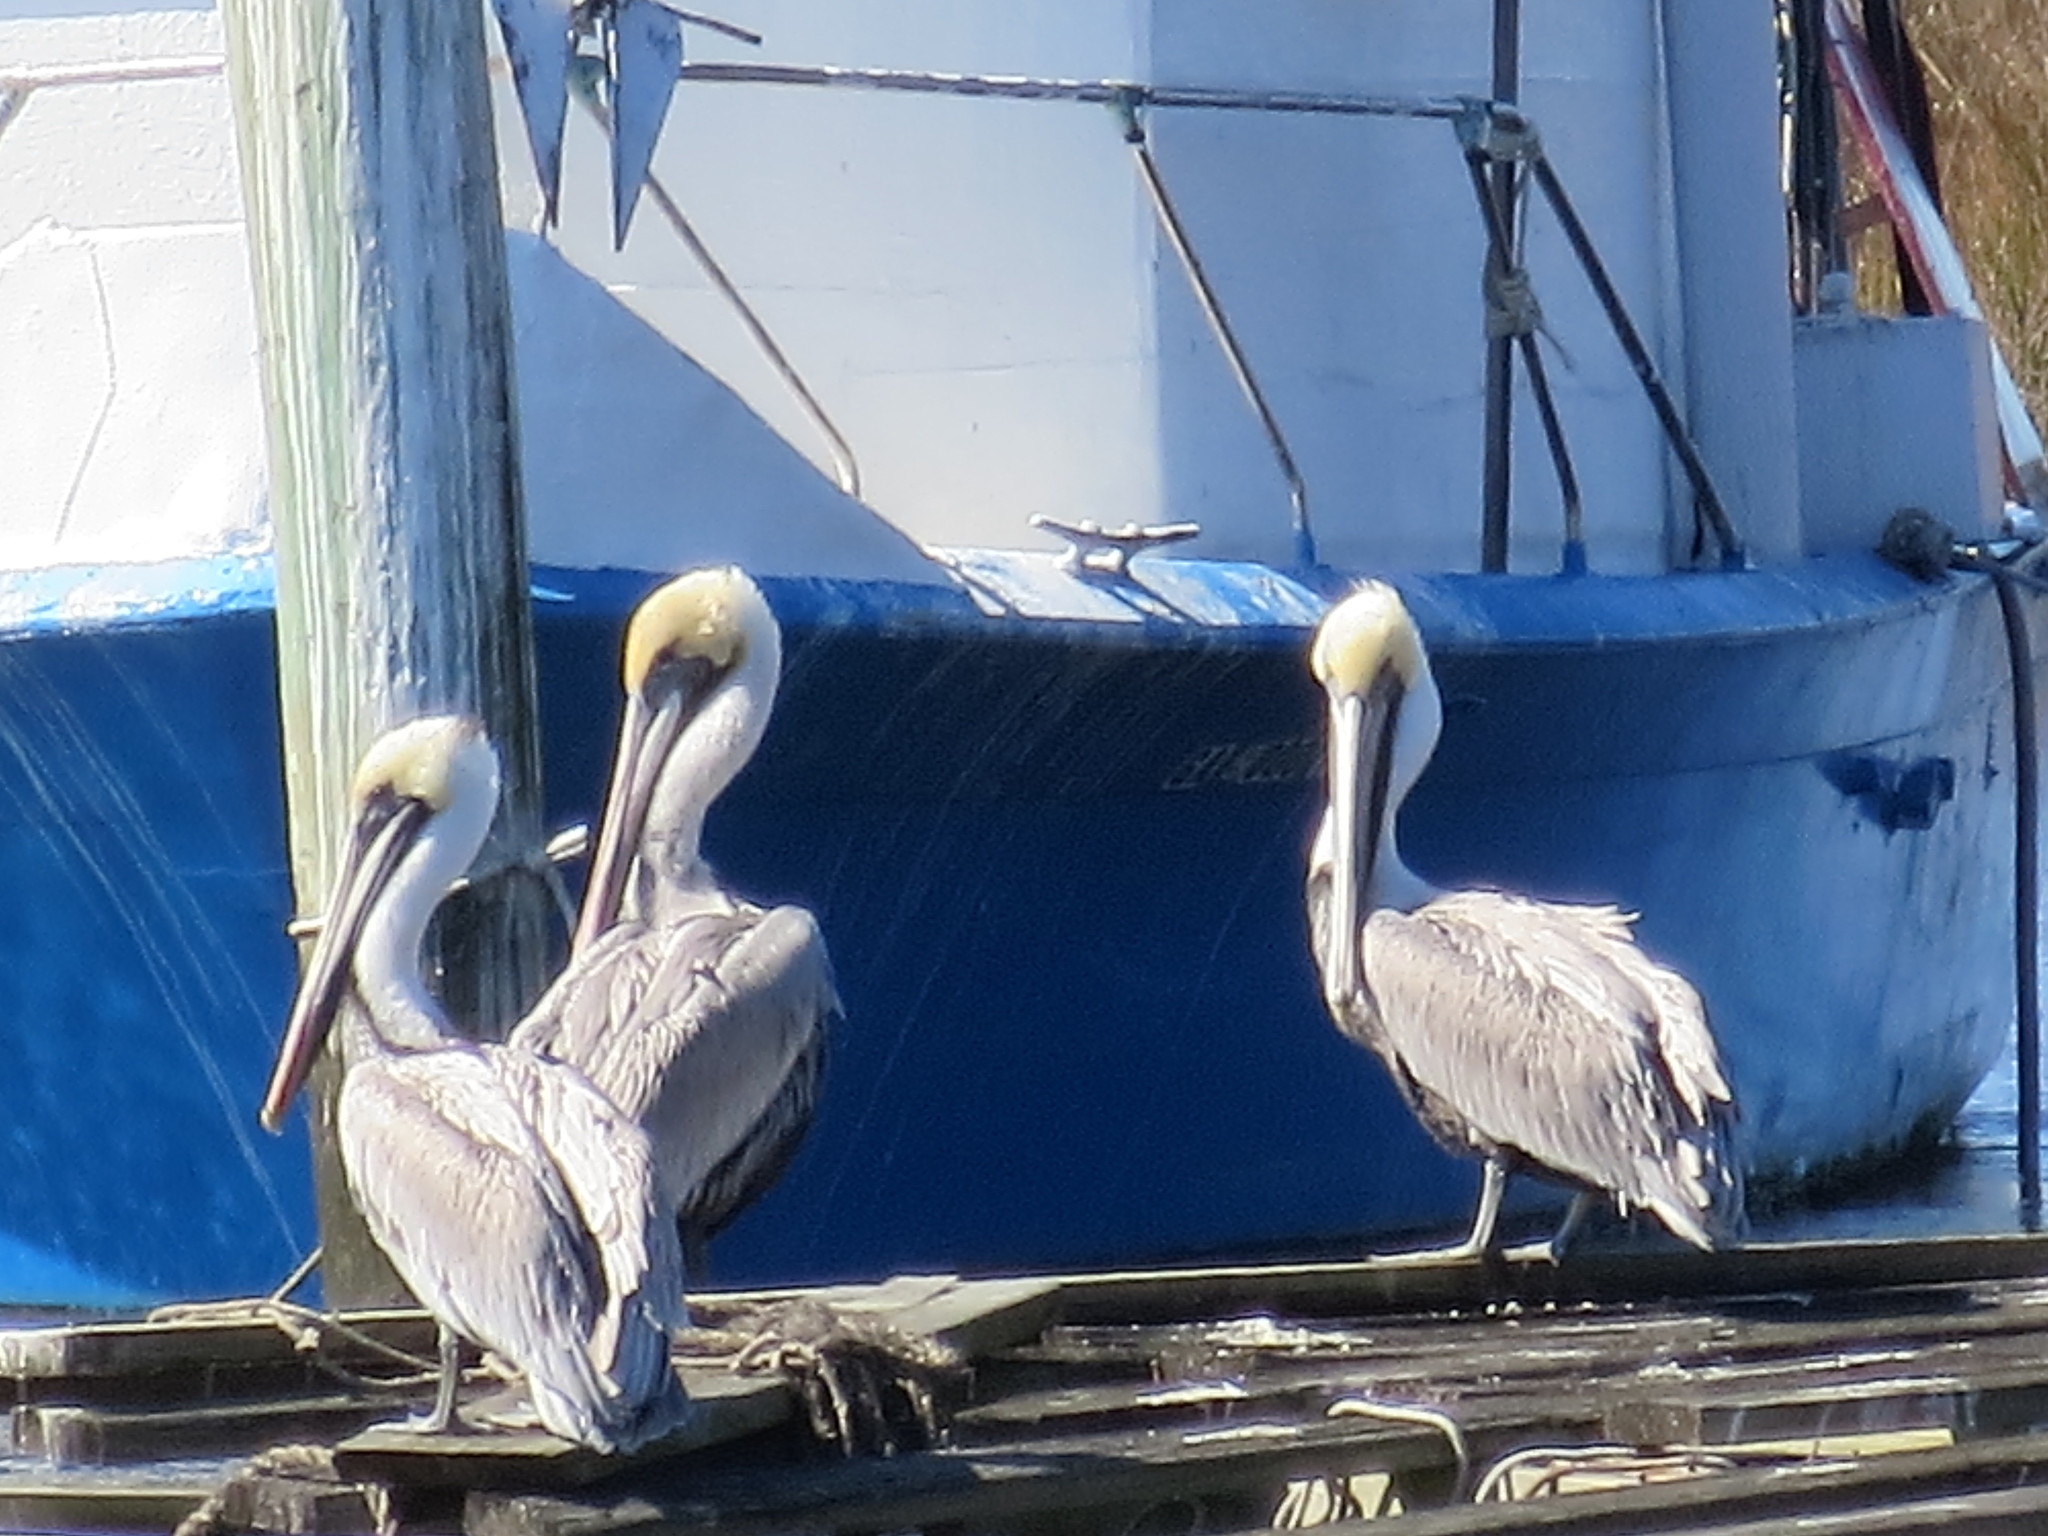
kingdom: Animalia
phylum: Chordata
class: Aves
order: Pelecaniformes
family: Pelecanidae
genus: Pelecanus
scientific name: Pelecanus occidentalis
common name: Brown pelican
